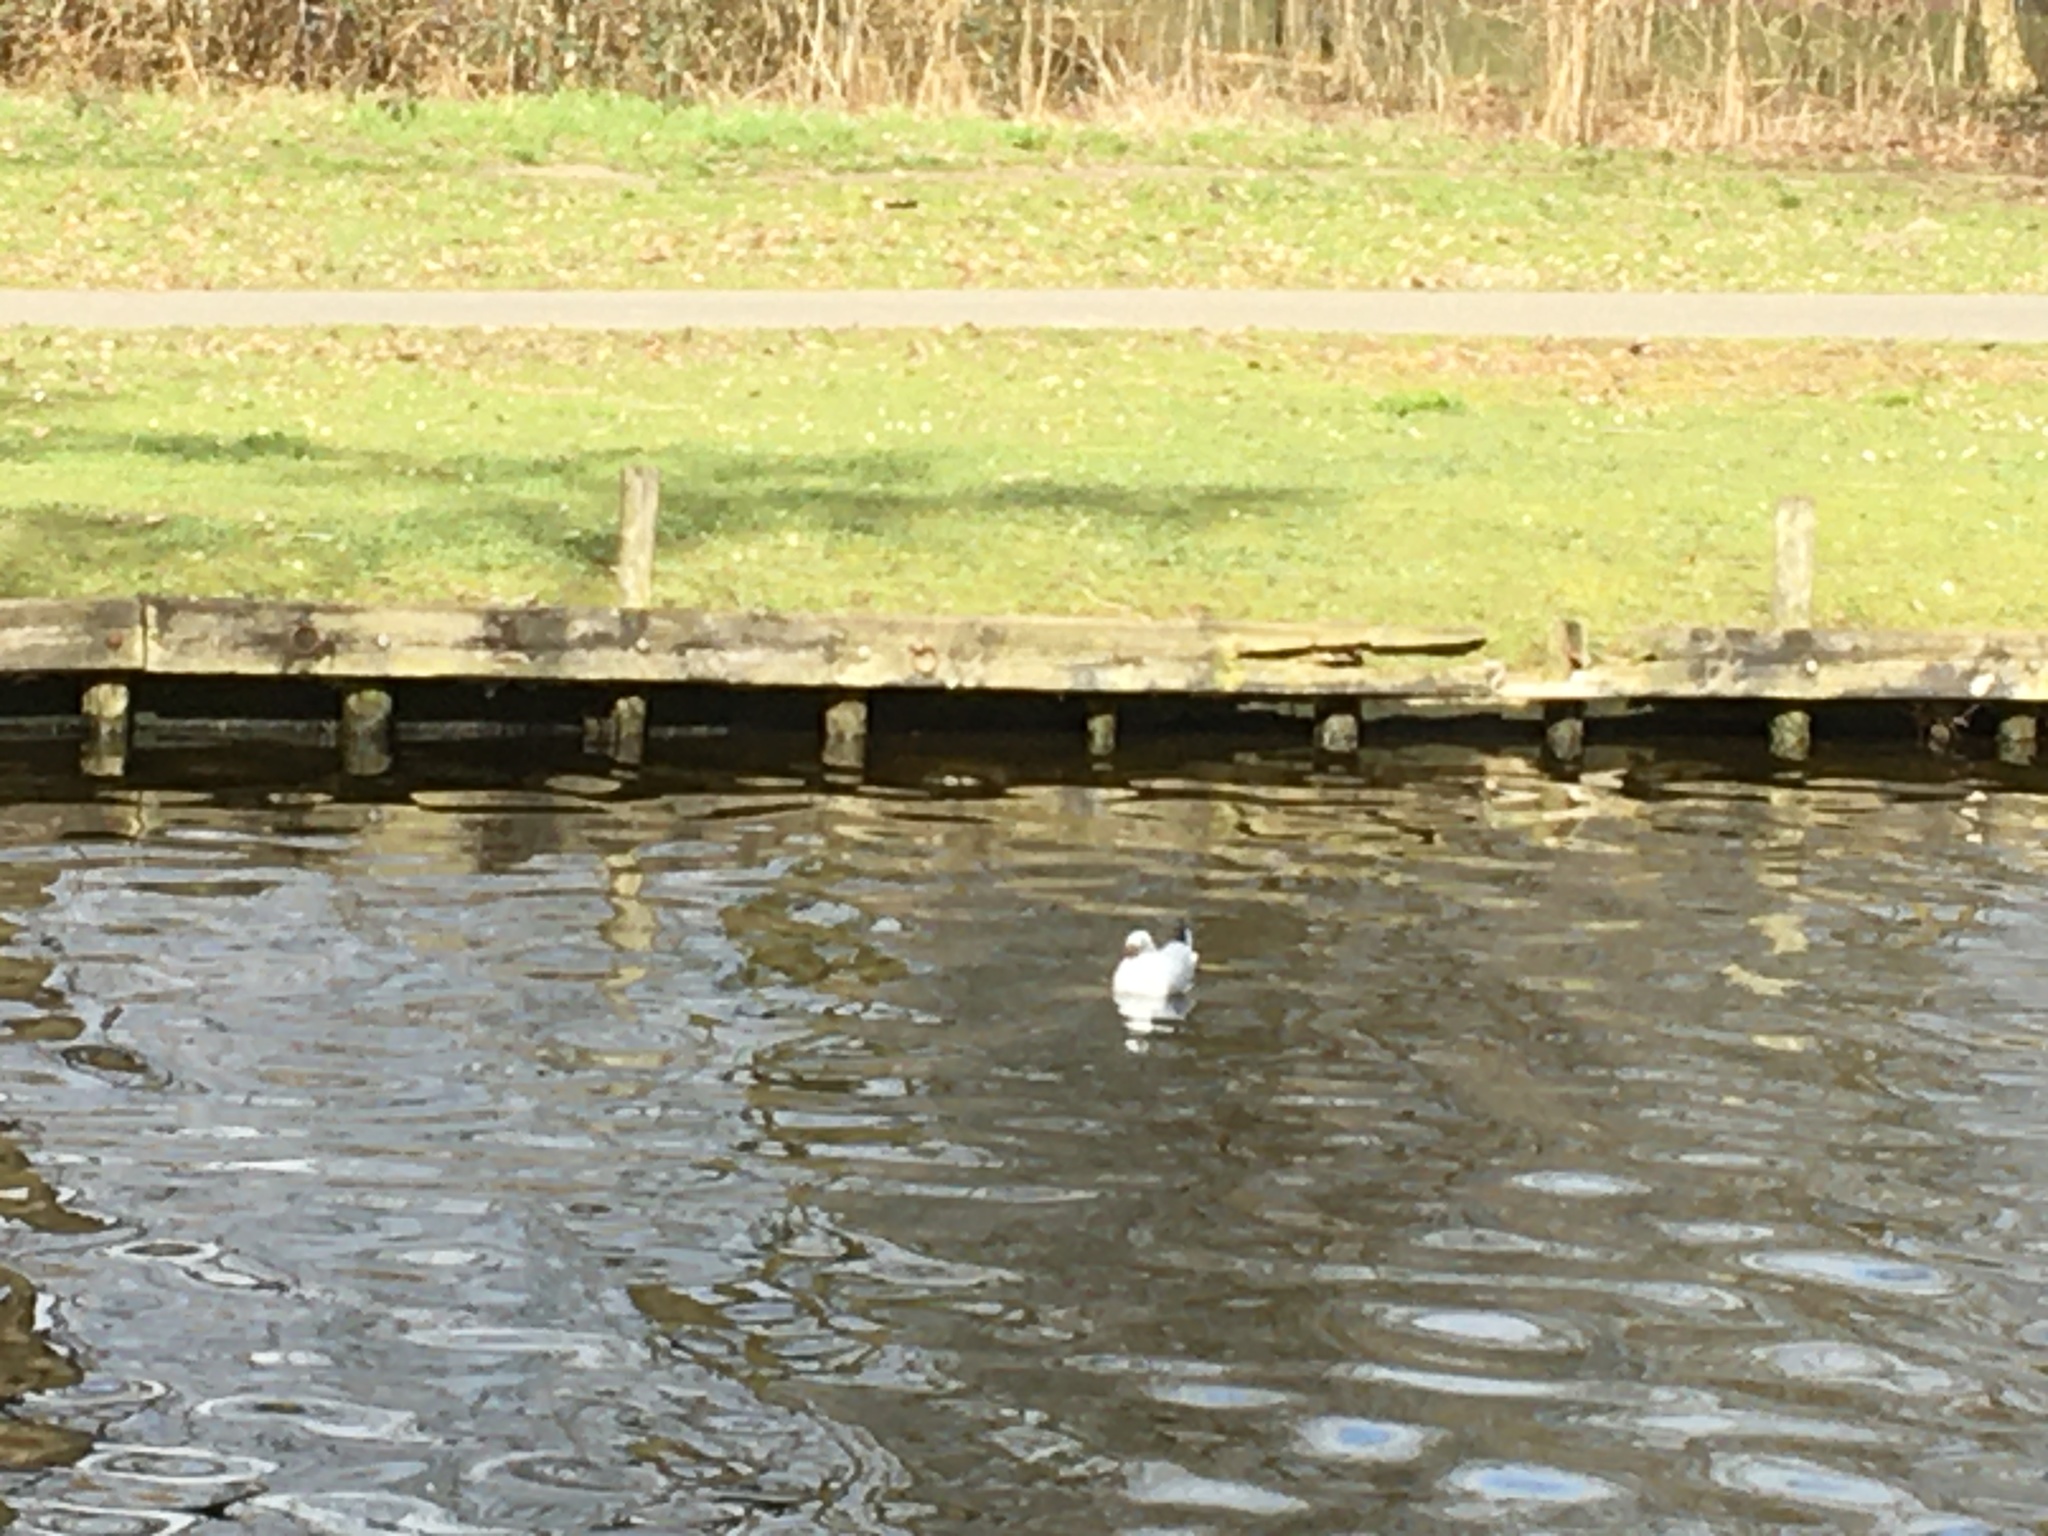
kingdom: Animalia
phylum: Chordata
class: Aves
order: Charadriiformes
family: Laridae
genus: Chroicocephalus
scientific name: Chroicocephalus ridibundus
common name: Black-headed gull
